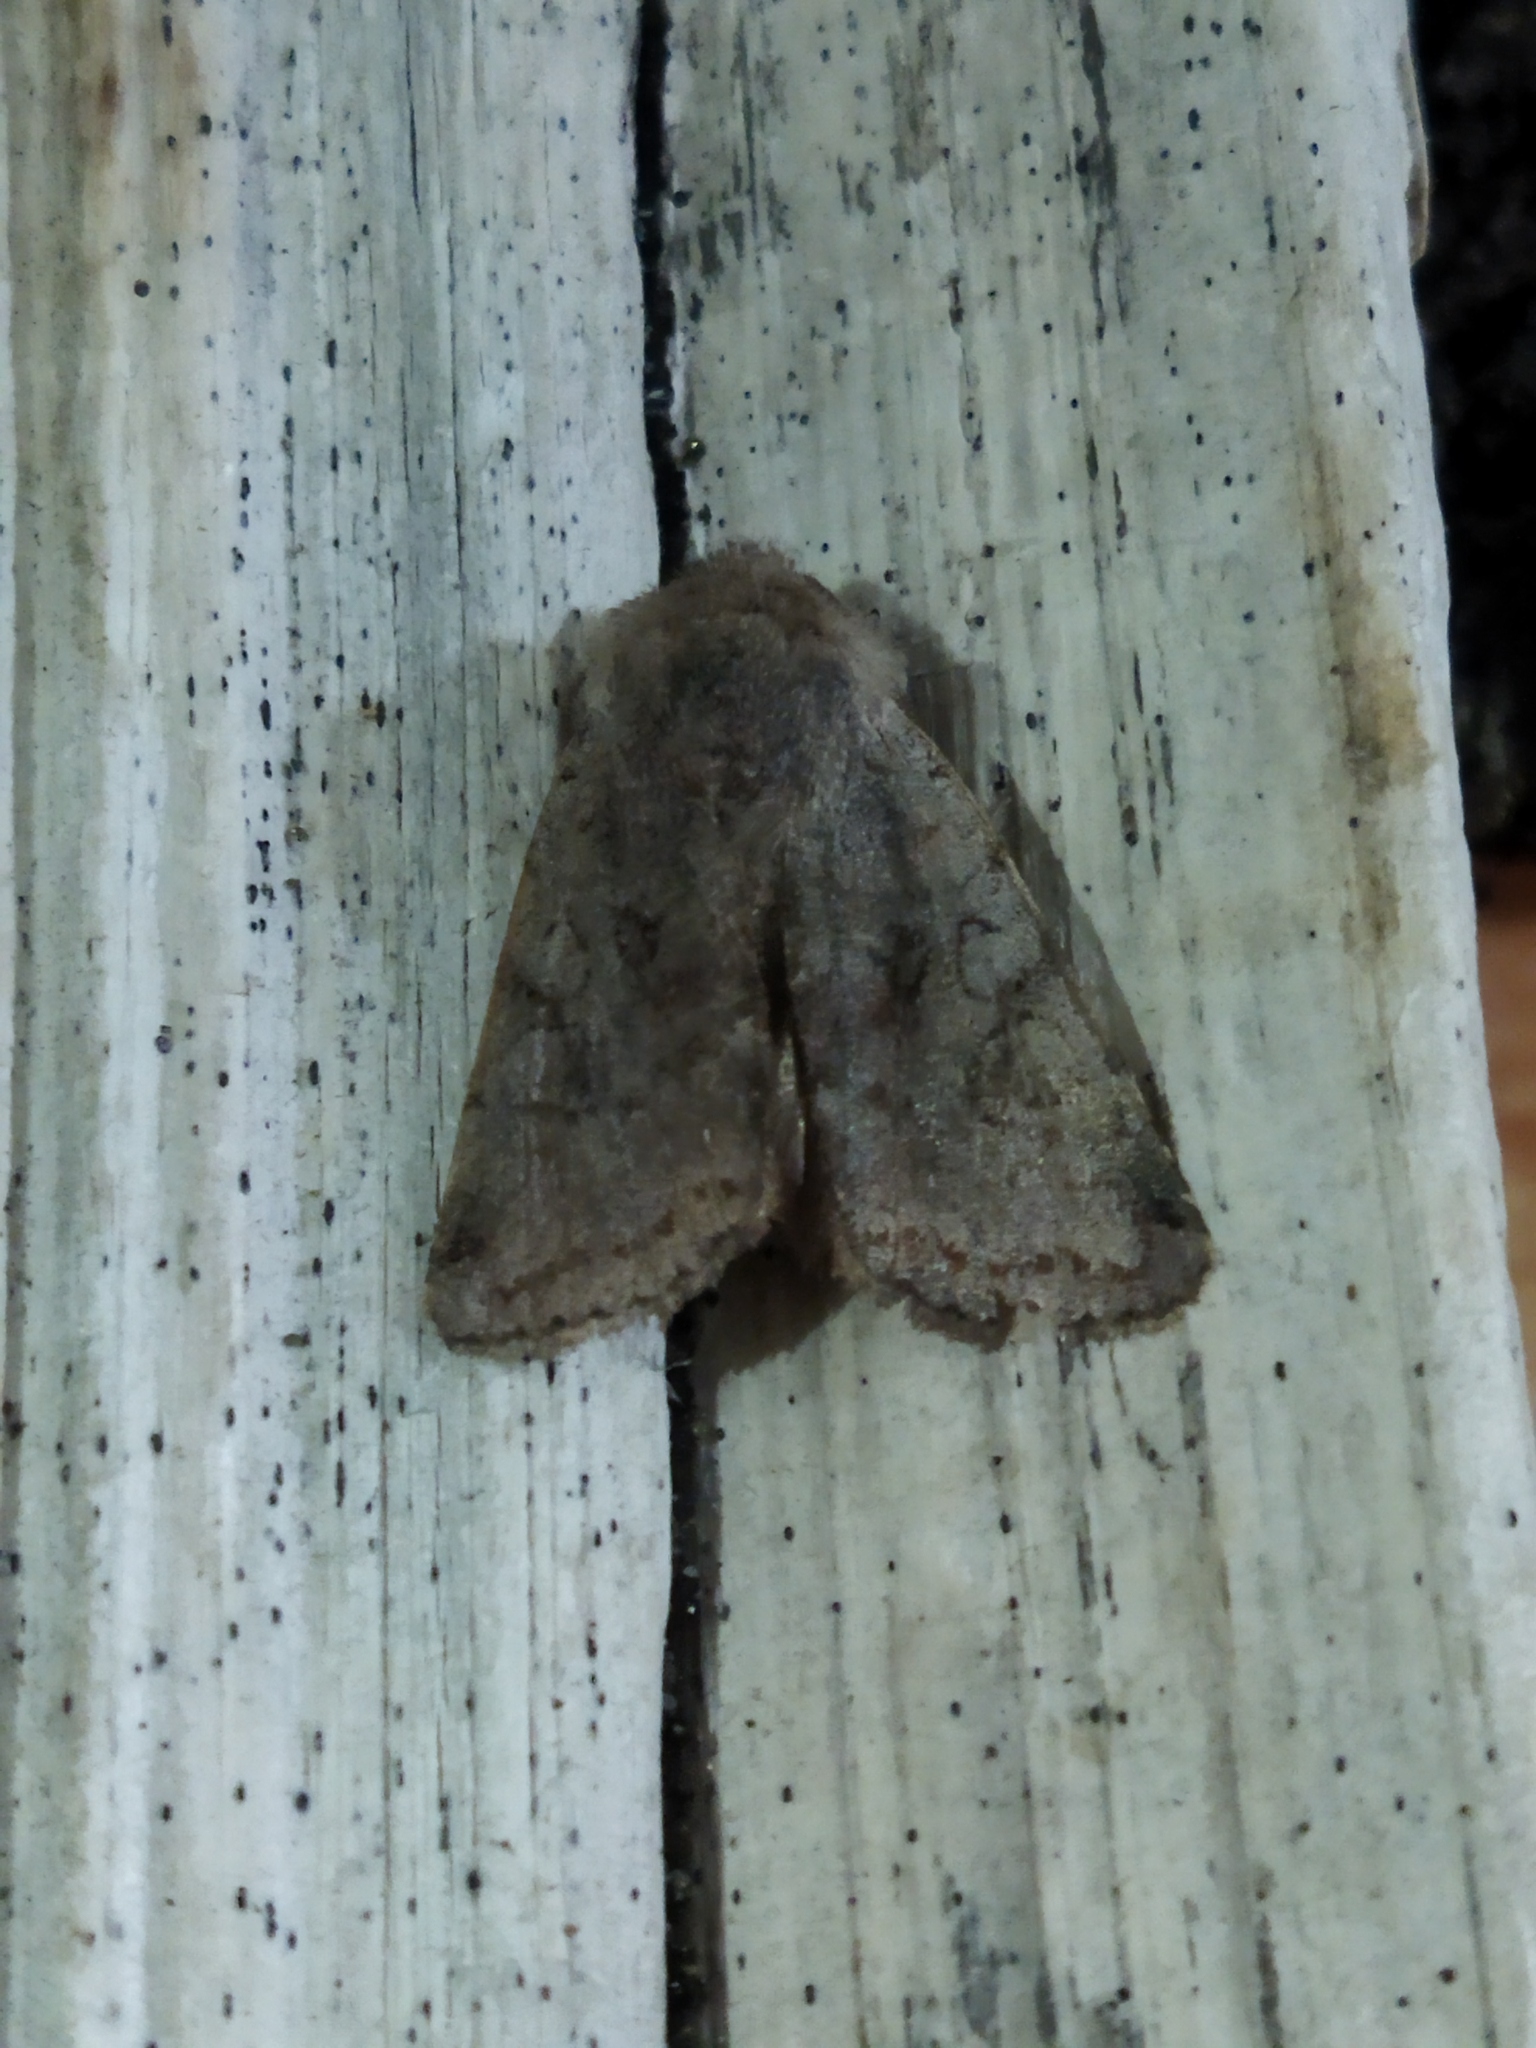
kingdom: Animalia
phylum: Arthropoda
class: Insecta
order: Lepidoptera
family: Noctuidae
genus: Cerastis
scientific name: Cerastis rubricosa
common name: Red chestnut
